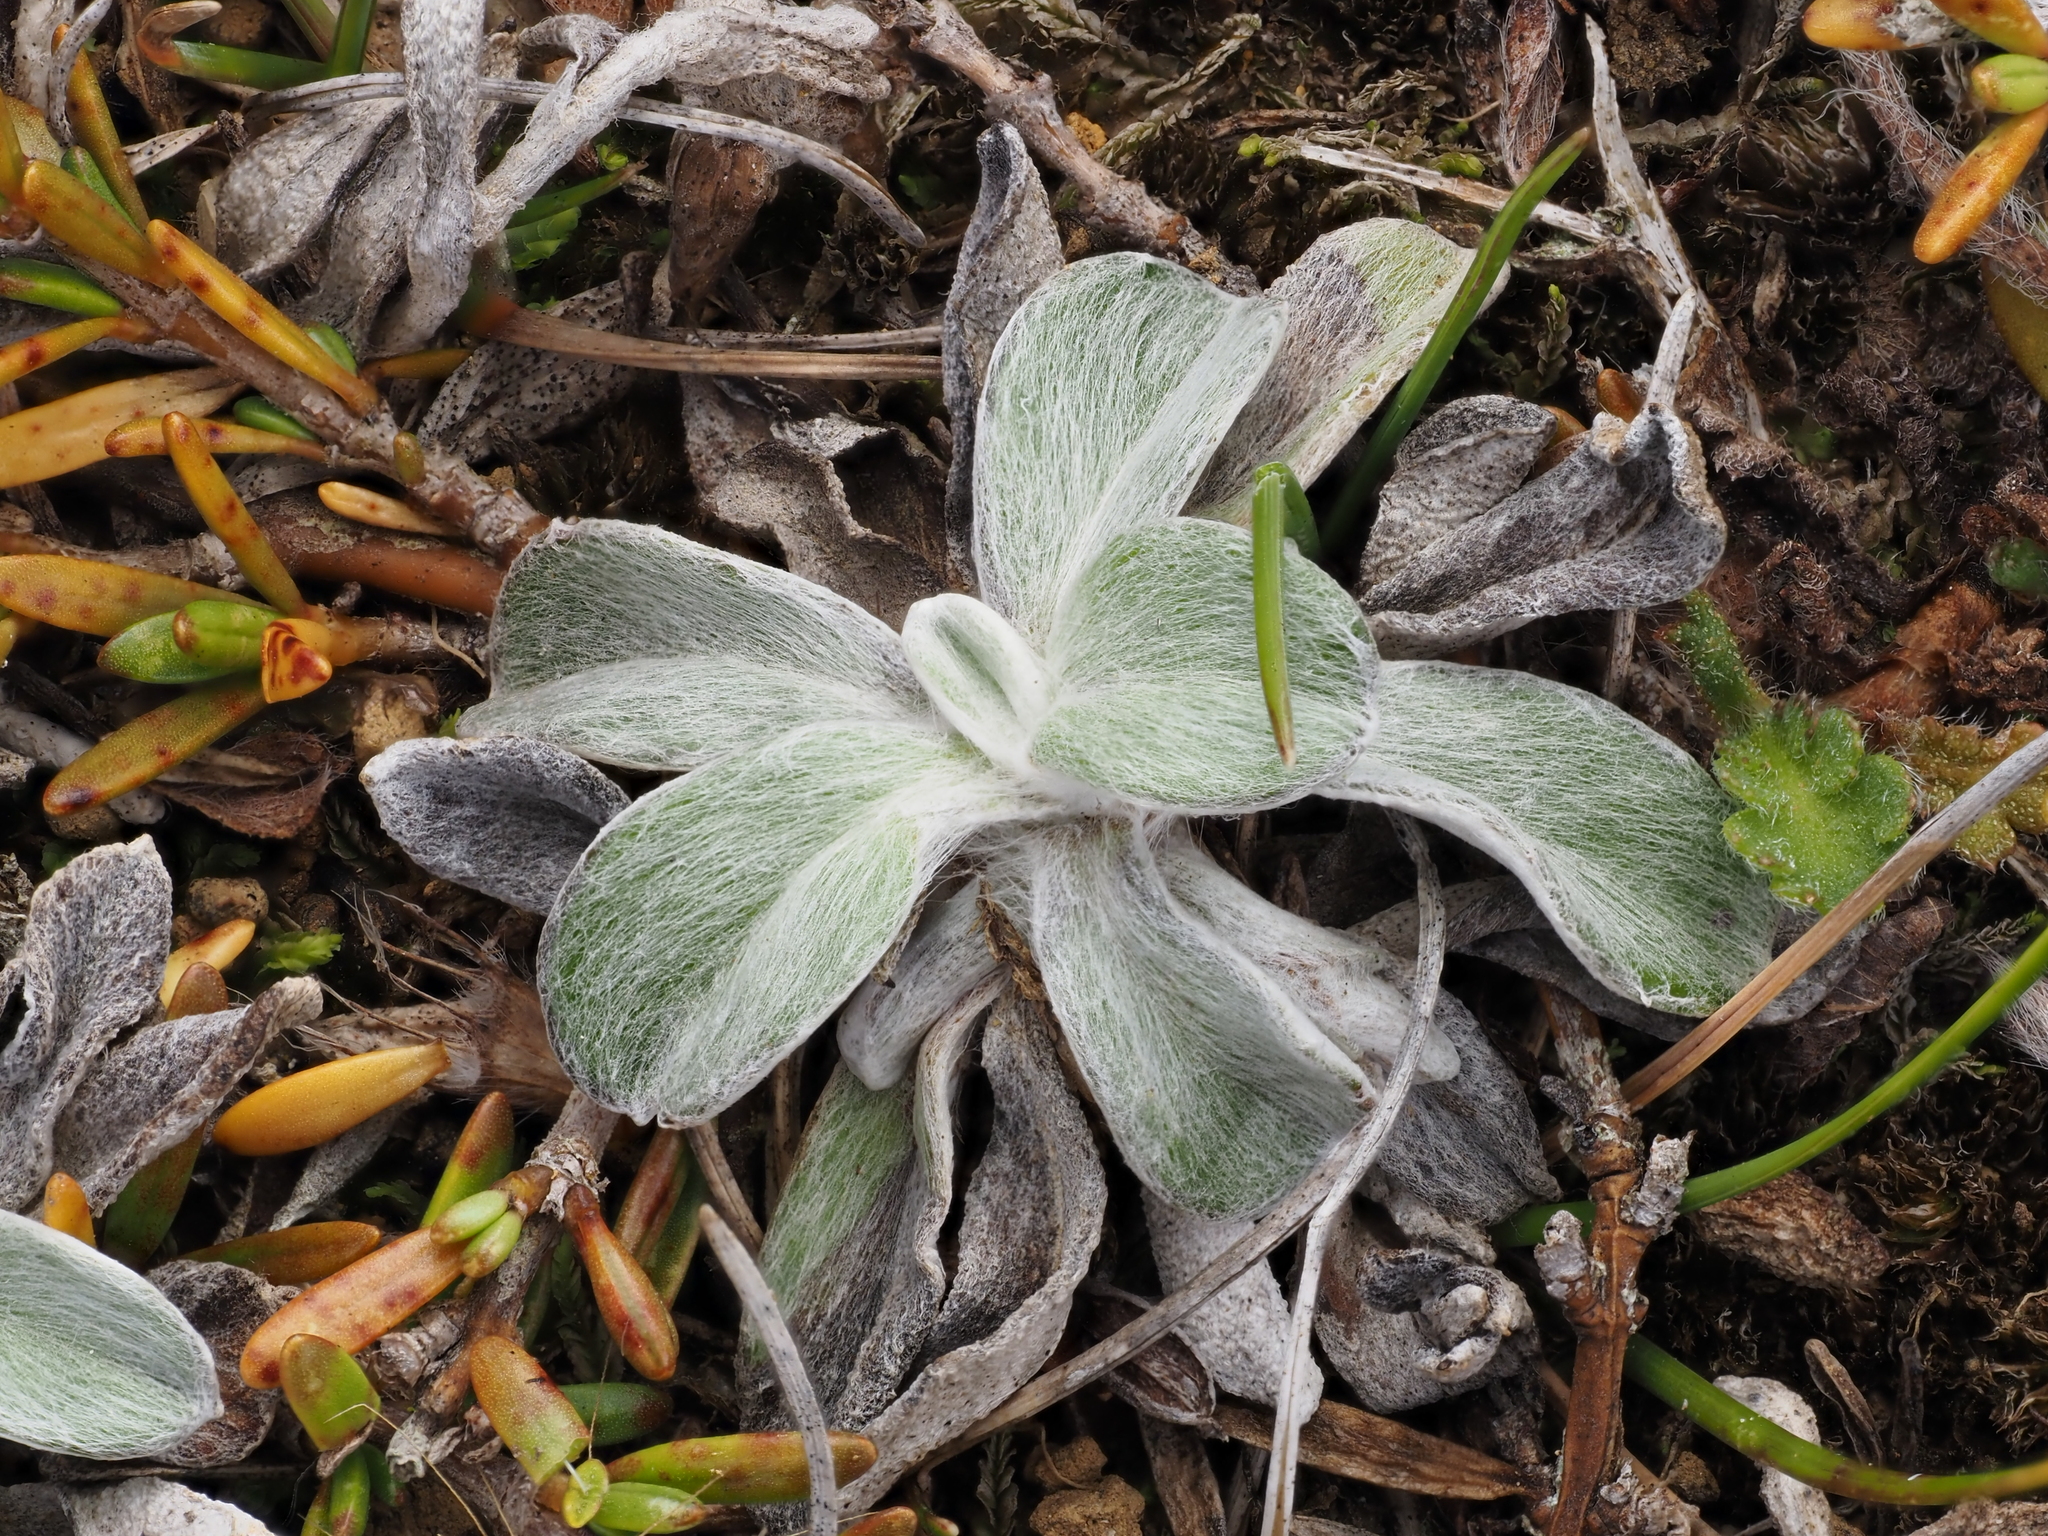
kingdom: Plantae
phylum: Tracheophyta
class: Magnoliopsida
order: Asterales
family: Asteraceae
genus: Euchiton
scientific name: Euchiton audax
